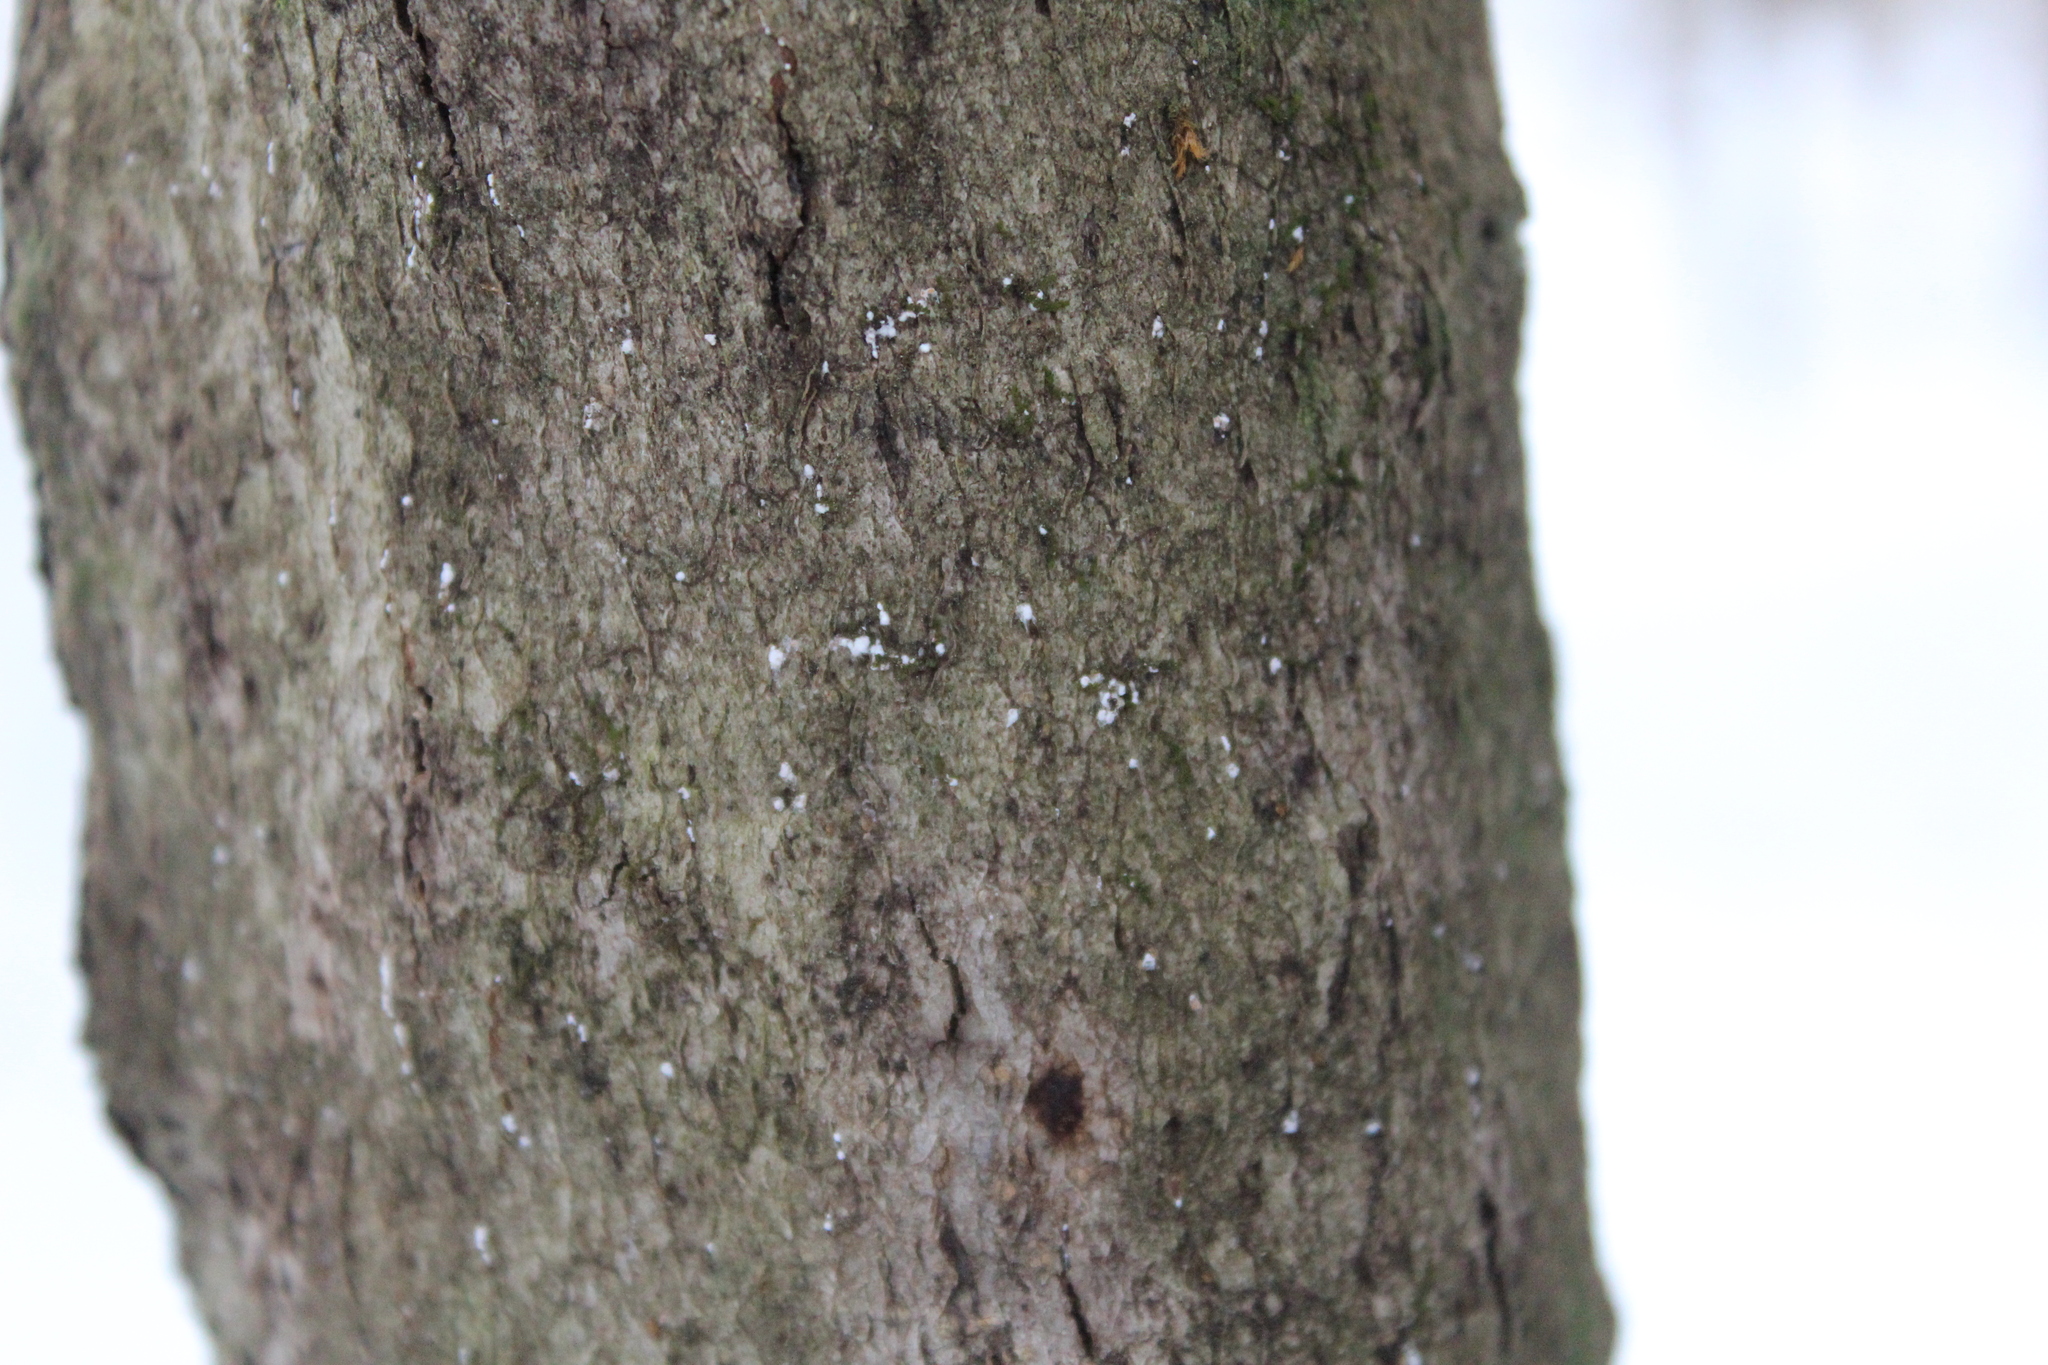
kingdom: Animalia
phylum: Arthropoda
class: Insecta
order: Hemiptera
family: Eriococcidae
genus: Cryptococcus
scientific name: Cryptococcus fagisuga
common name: Beech scale
